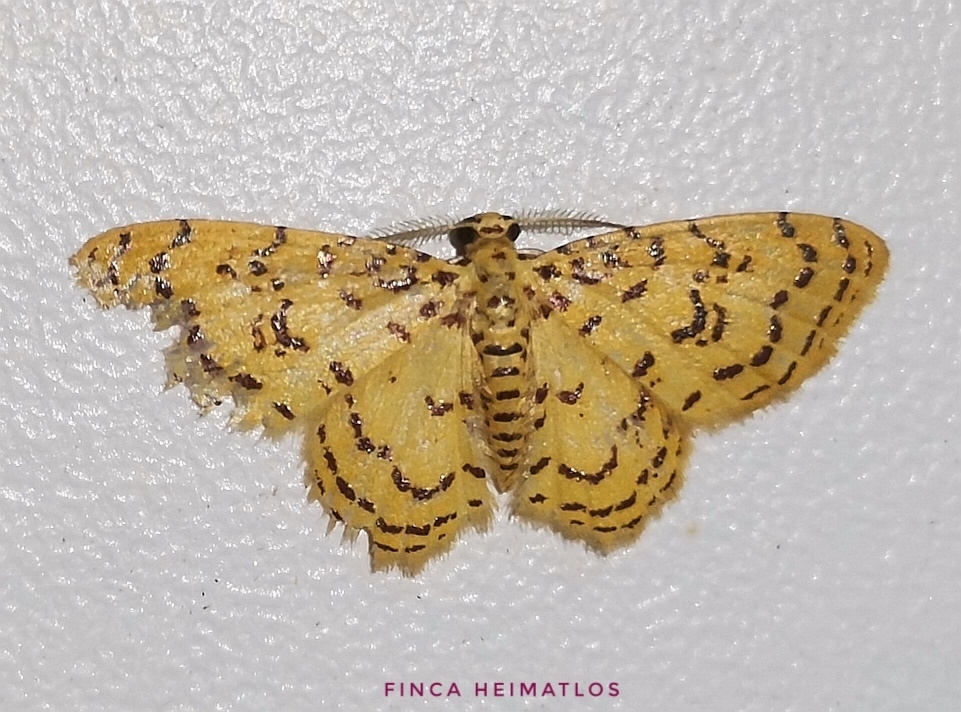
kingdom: Animalia
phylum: Arthropoda
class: Insecta
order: Lepidoptera
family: Geometridae
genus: Eois
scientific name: Eois canariata
